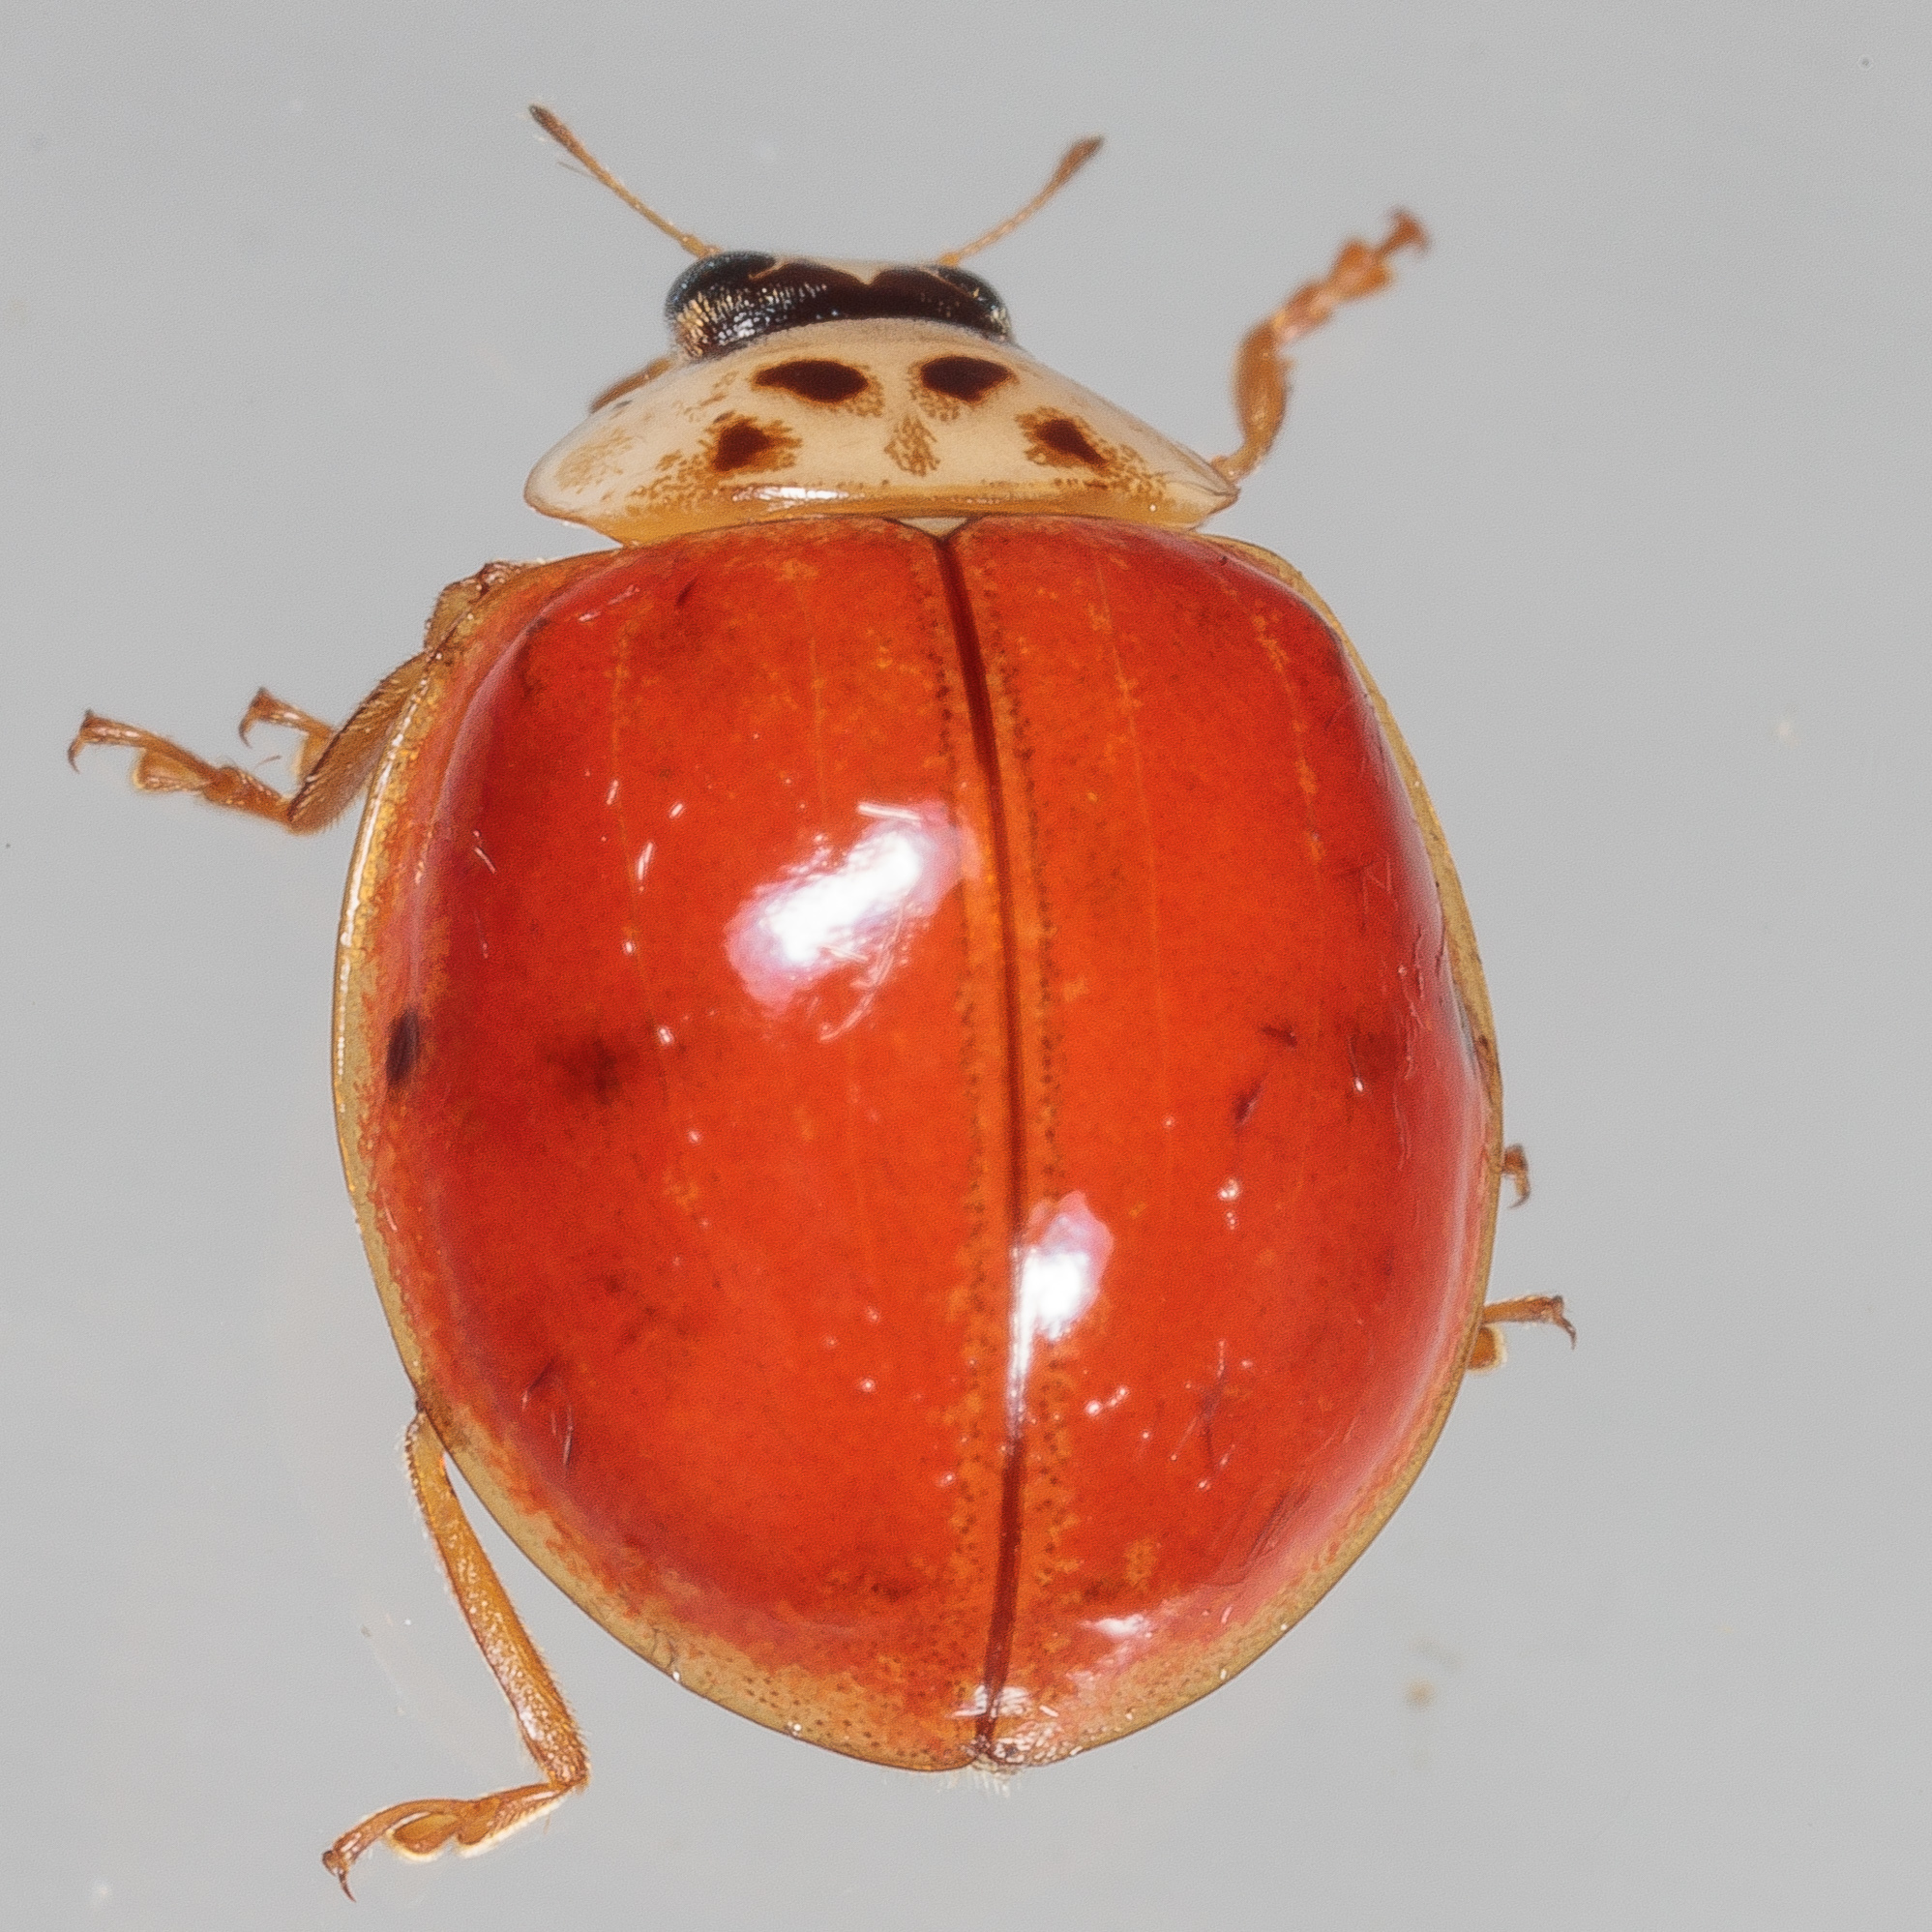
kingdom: Animalia
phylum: Arthropoda
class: Insecta
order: Coleoptera
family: Coccinellidae
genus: Harmonia
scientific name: Harmonia axyridis
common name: Harlequin ladybird
